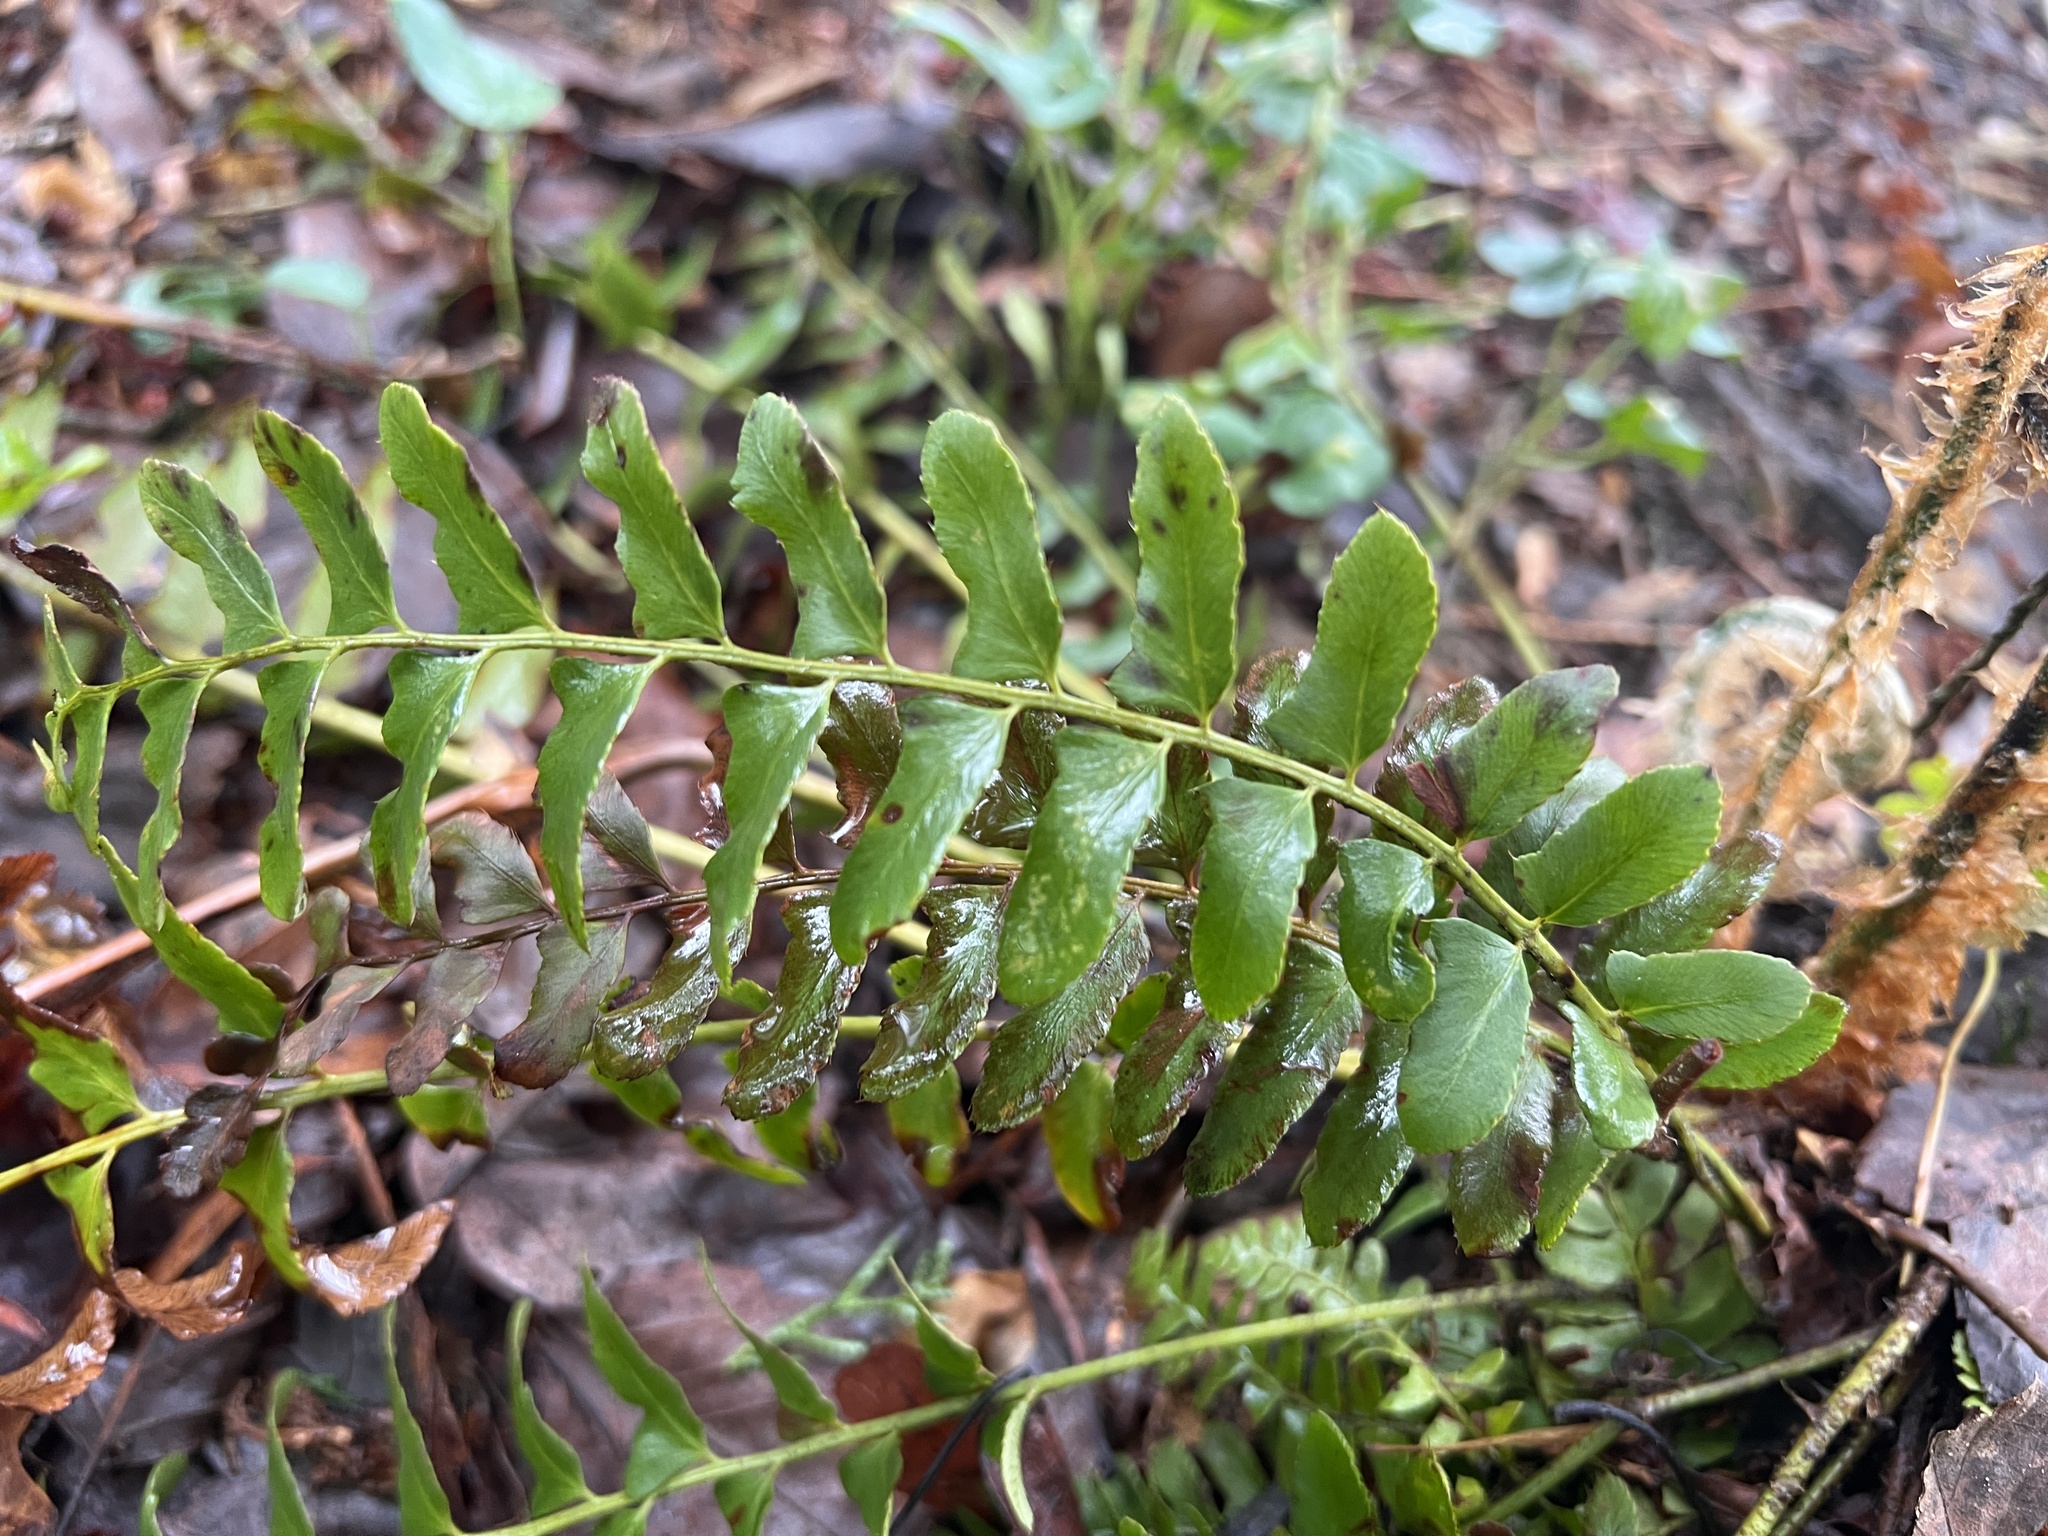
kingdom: Plantae
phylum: Tracheophyta
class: Polypodiopsida
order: Polypodiales
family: Dryopteridaceae
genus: Polystichum
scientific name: Polystichum acrostichoides
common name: Christmas fern
